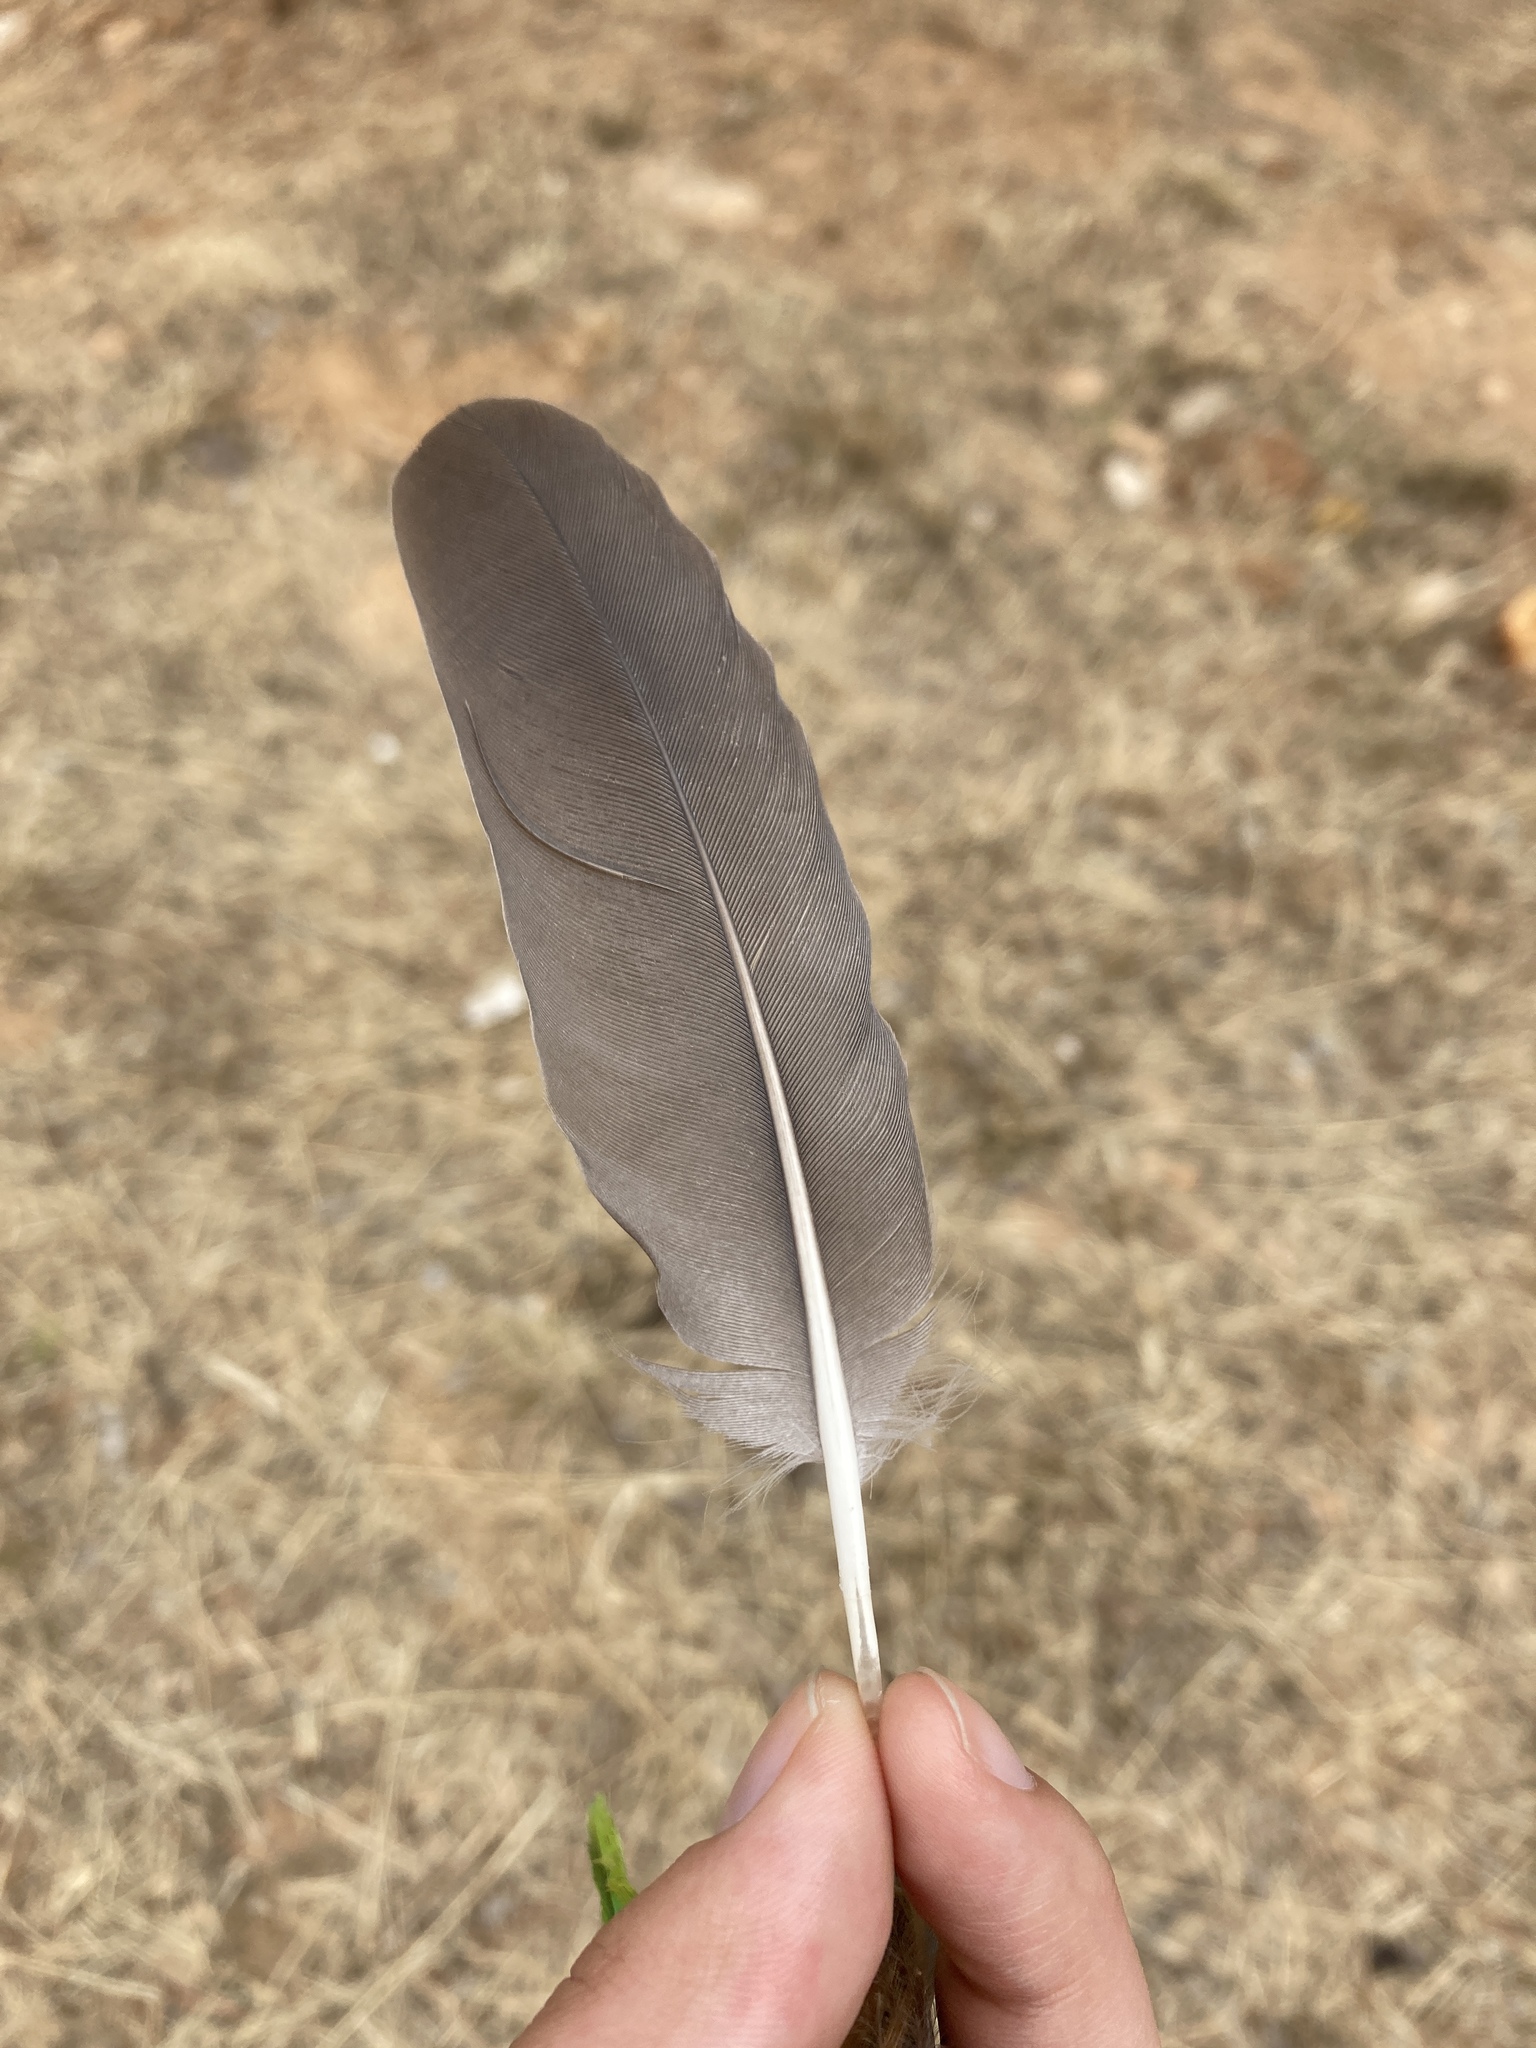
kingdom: Animalia
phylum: Chordata
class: Aves
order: Columbiformes
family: Columbidae
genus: Columba
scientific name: Columba palumbus
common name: Common wood pigeon
